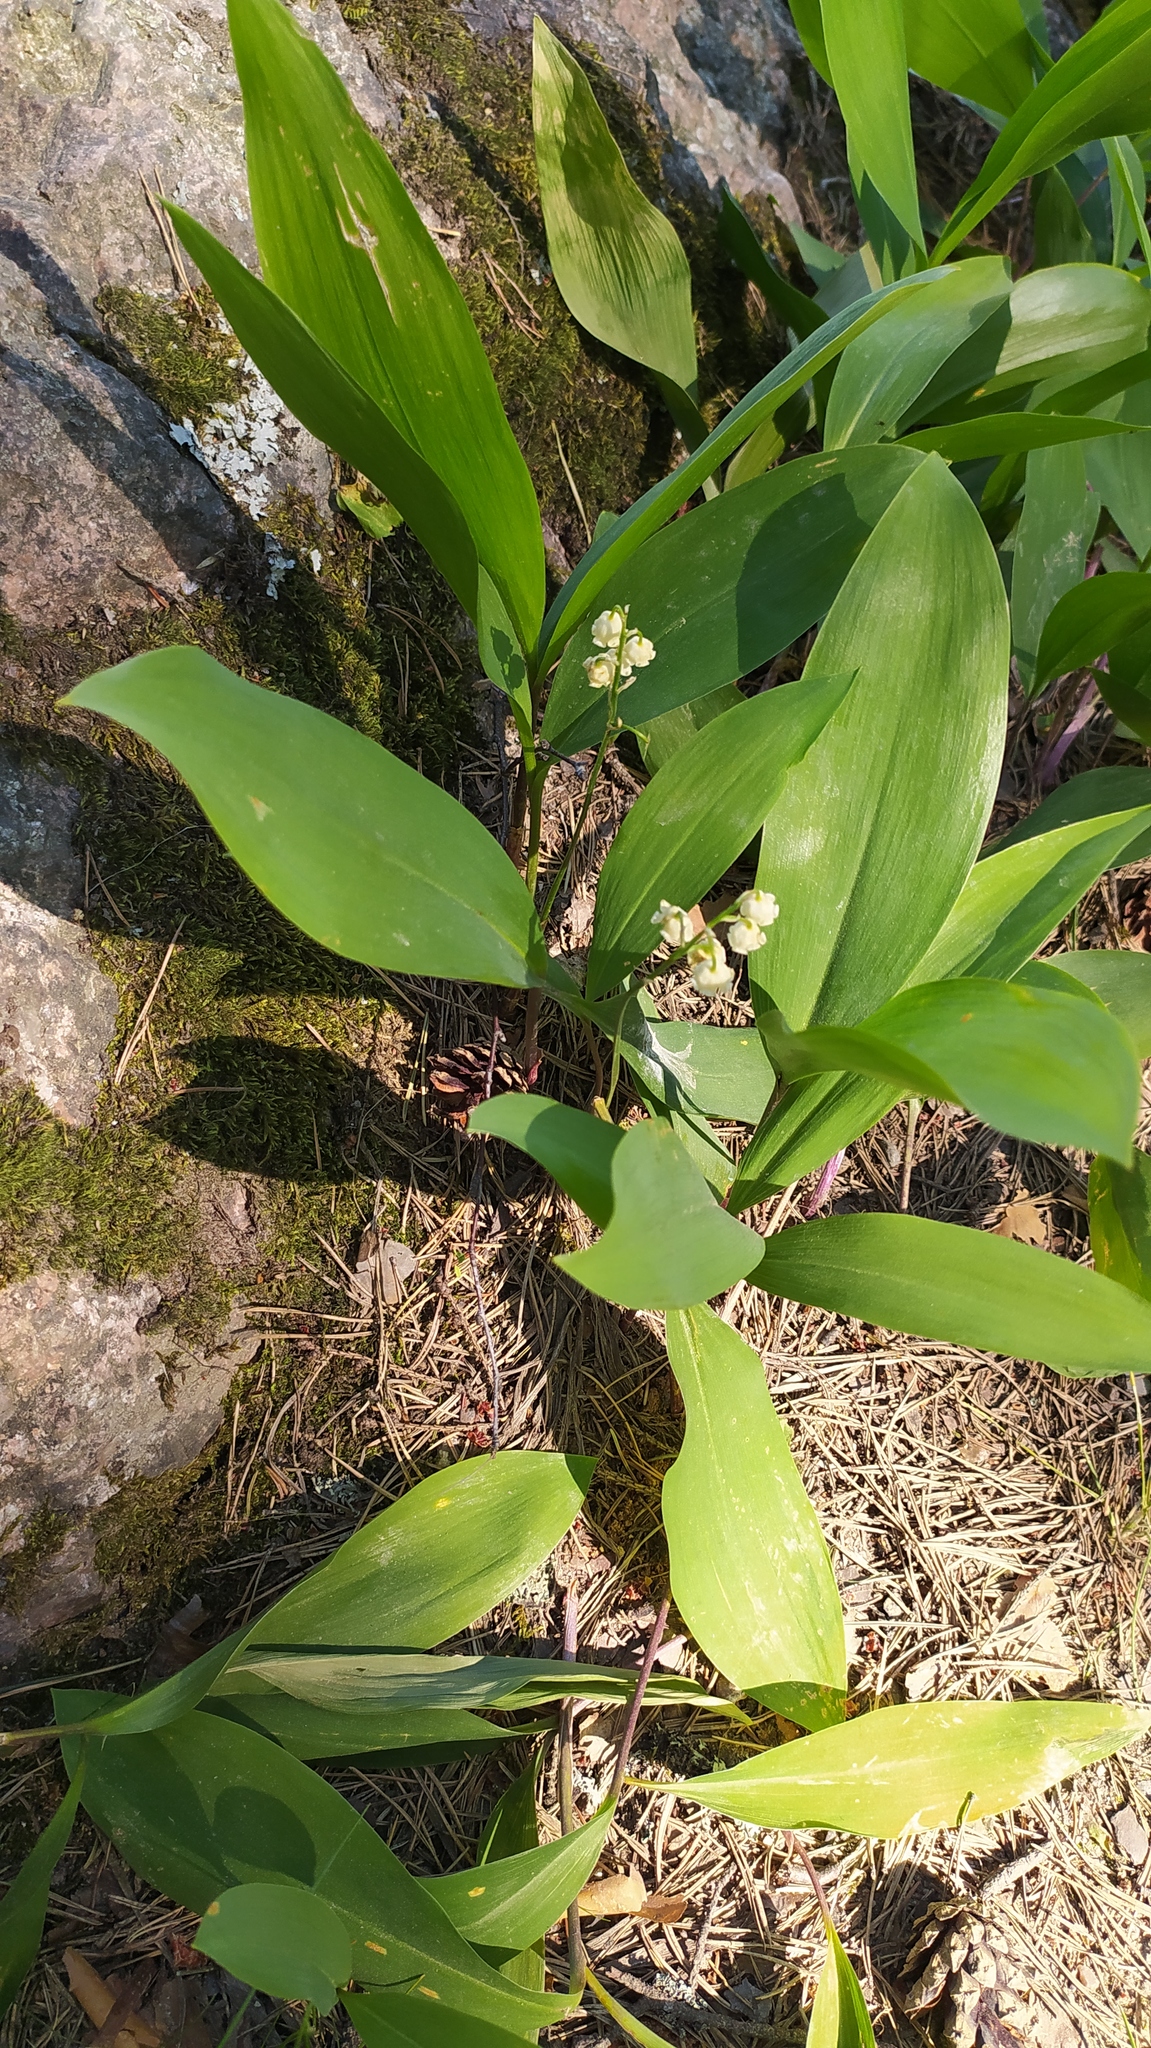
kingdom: Plantae
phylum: Tracheophyta
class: Liliopsida
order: Asparagales
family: Asparagaceae
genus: Convallaria
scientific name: Convallaria majalis
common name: Lily-of-the-valley
